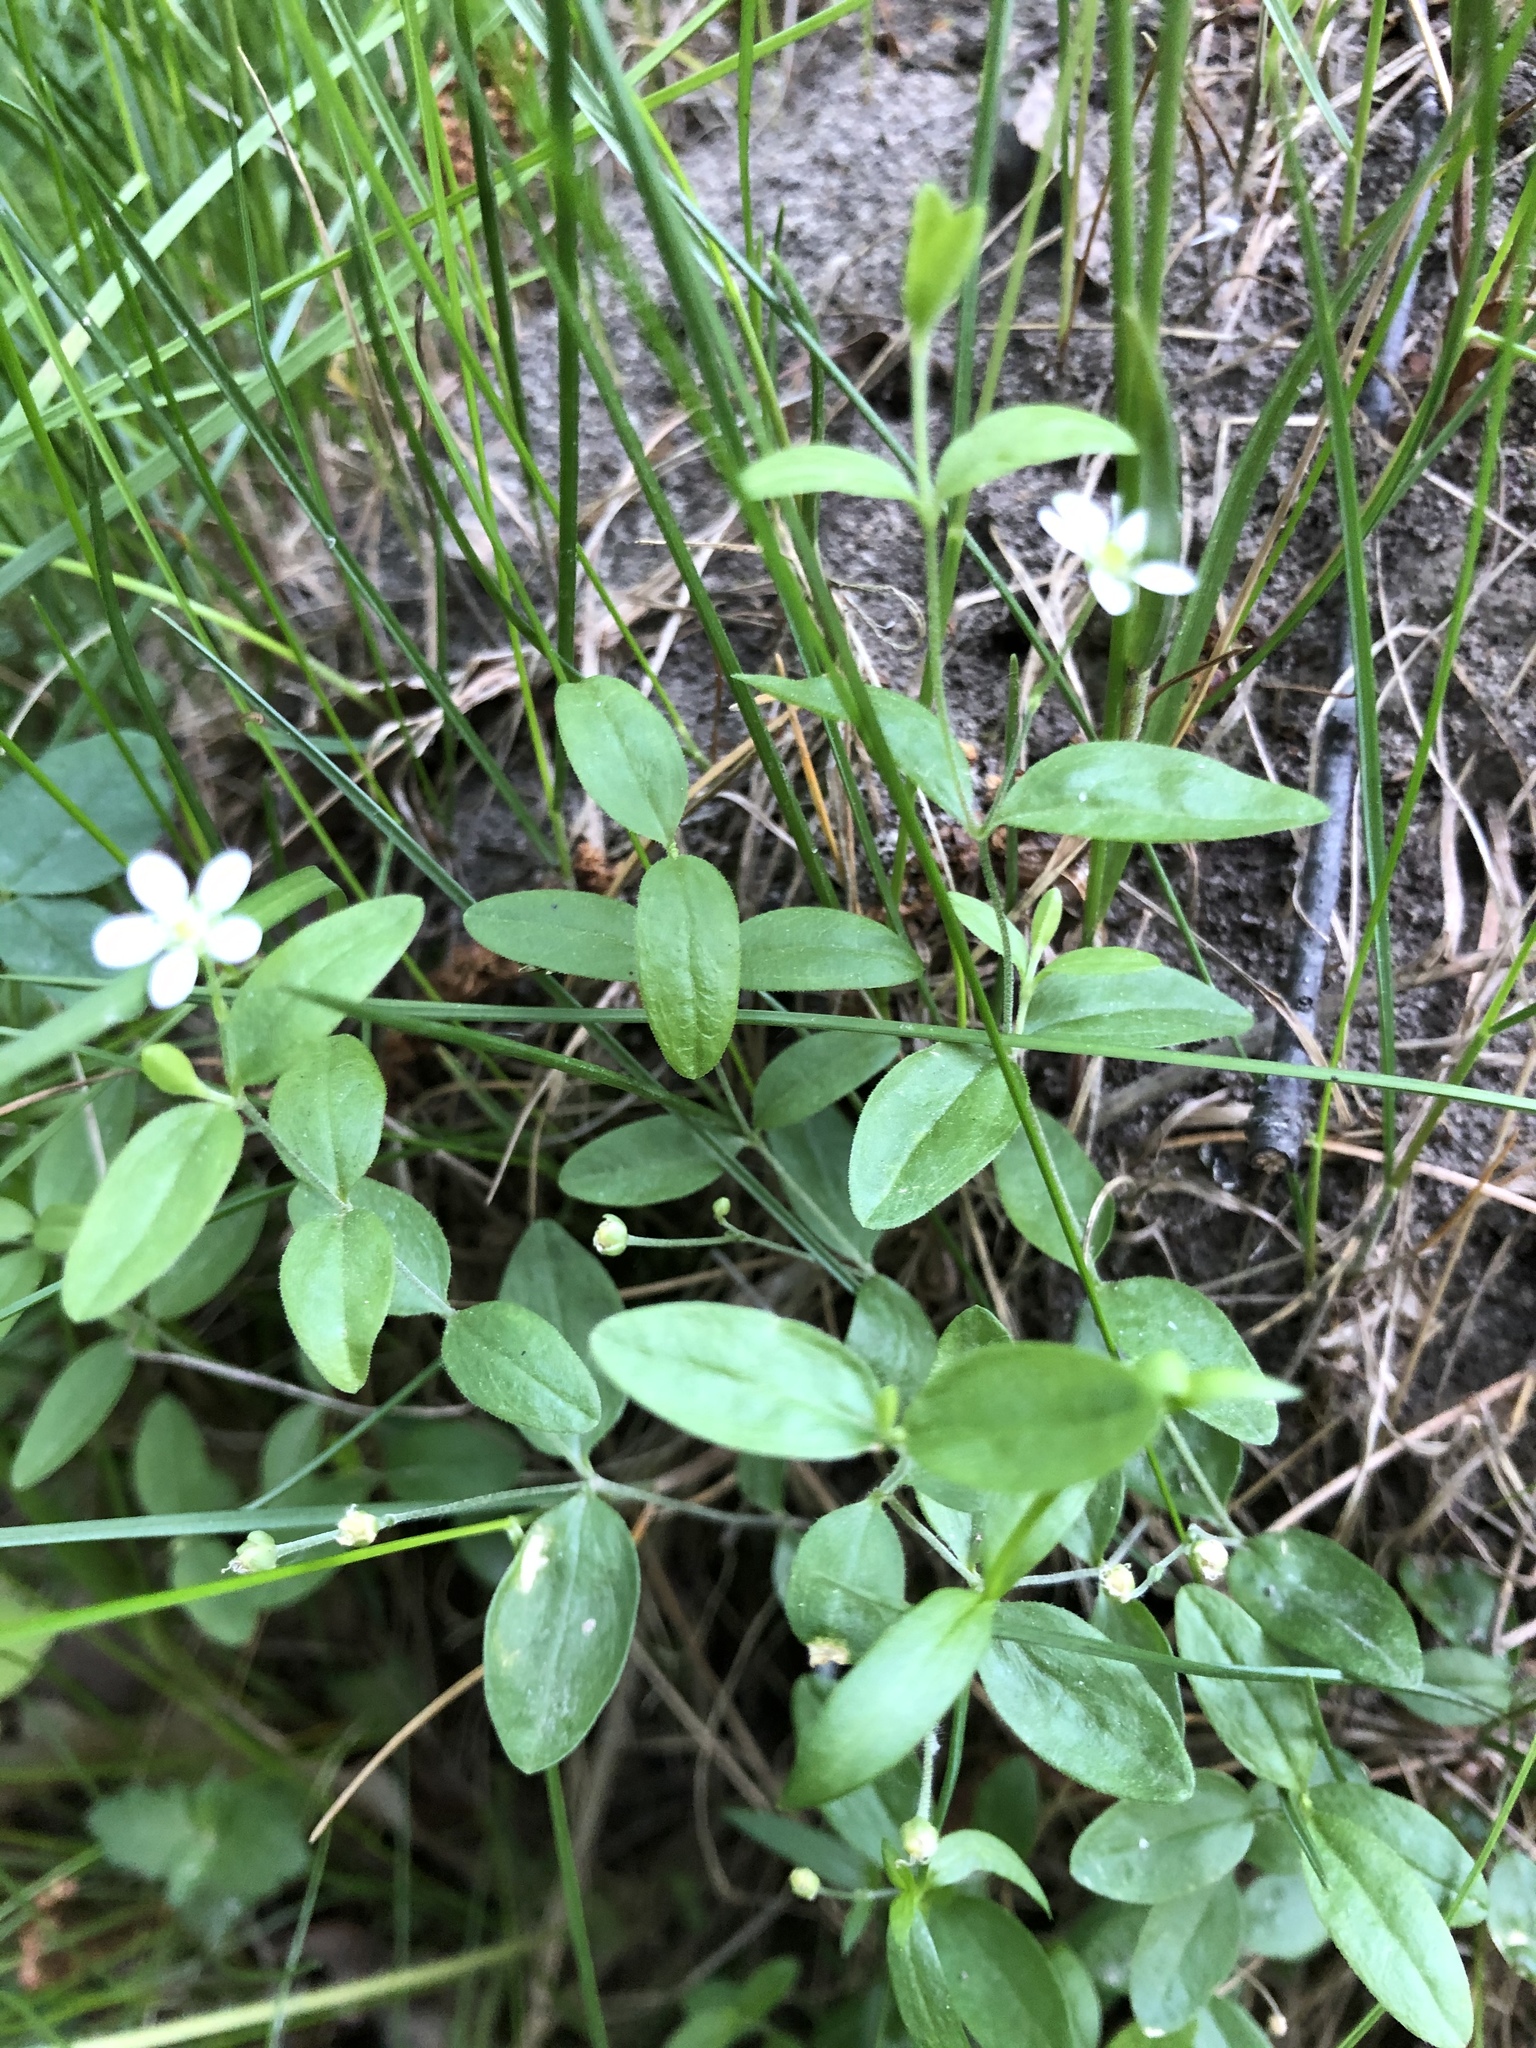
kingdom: Plantae
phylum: Tracheophyta
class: Magnoliopsida
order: Caryophyllales
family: Caryophyllaceae
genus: Moehringia
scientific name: Moehringia lateriflora
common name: Blunt-leaved sandwort
